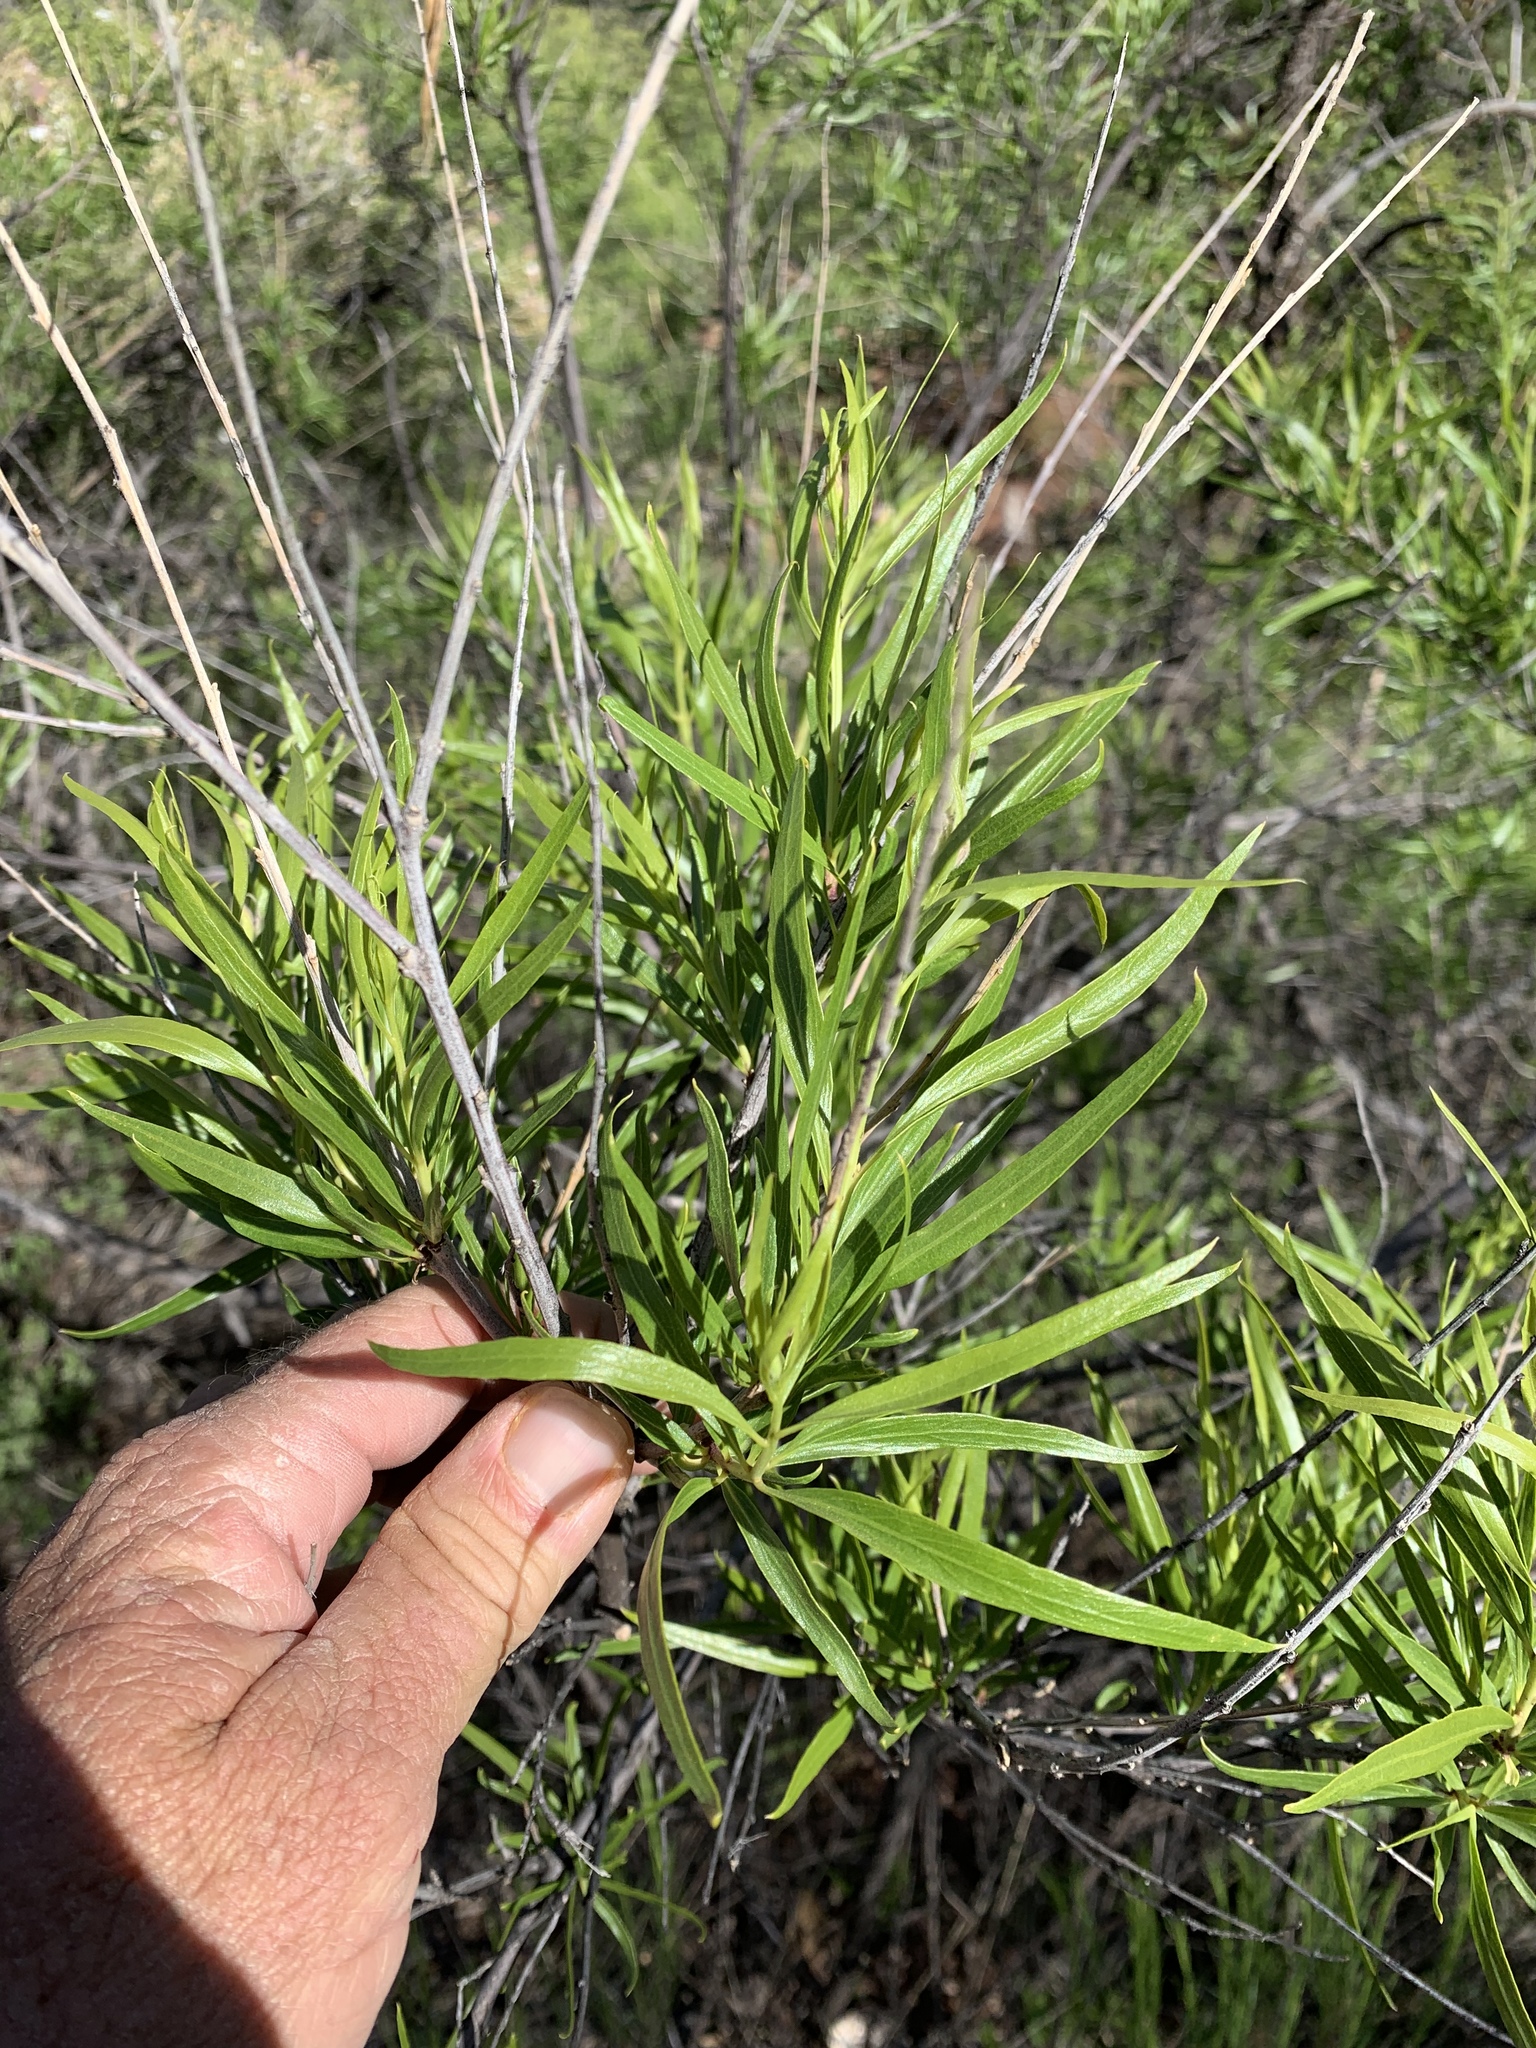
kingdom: Plantae
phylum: Tracheophyta
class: Magnoliopsida
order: Lamiales
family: Bignoniaceae
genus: Chilopsis
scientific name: Chilopsis linearis
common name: Desert-willow
